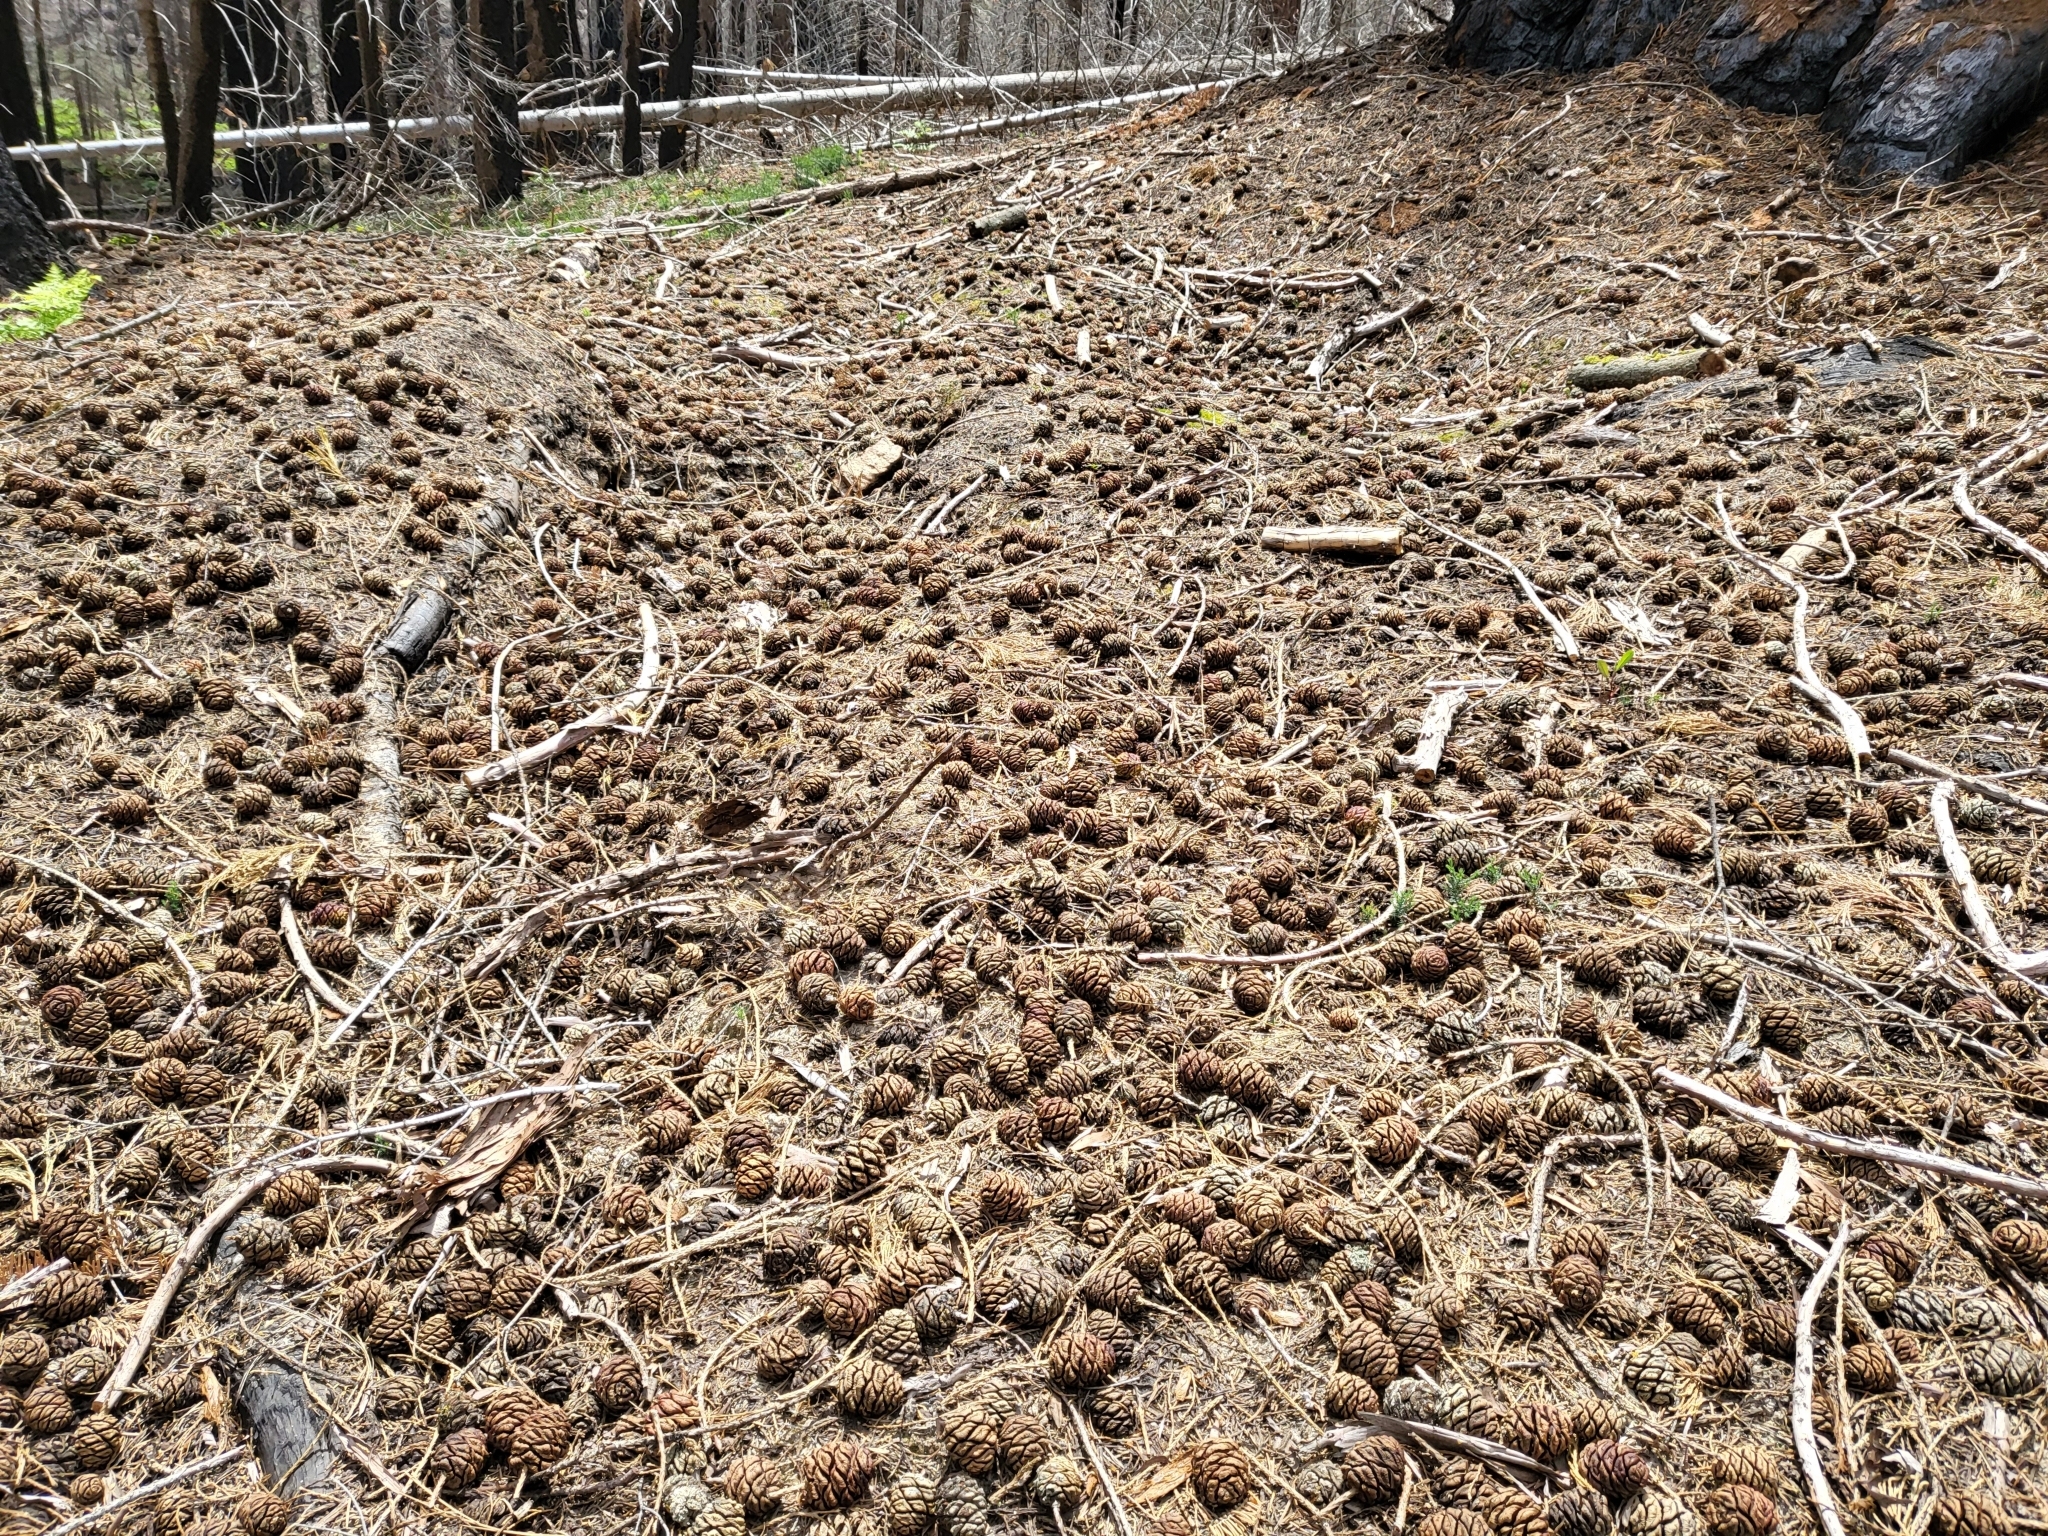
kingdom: Plantae
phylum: Tracheophyta
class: Pinopsida
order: Pinales
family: Cupressaceae
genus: Sequoiadendron
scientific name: Sequoiadendron giganteum
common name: Wellingtonia
